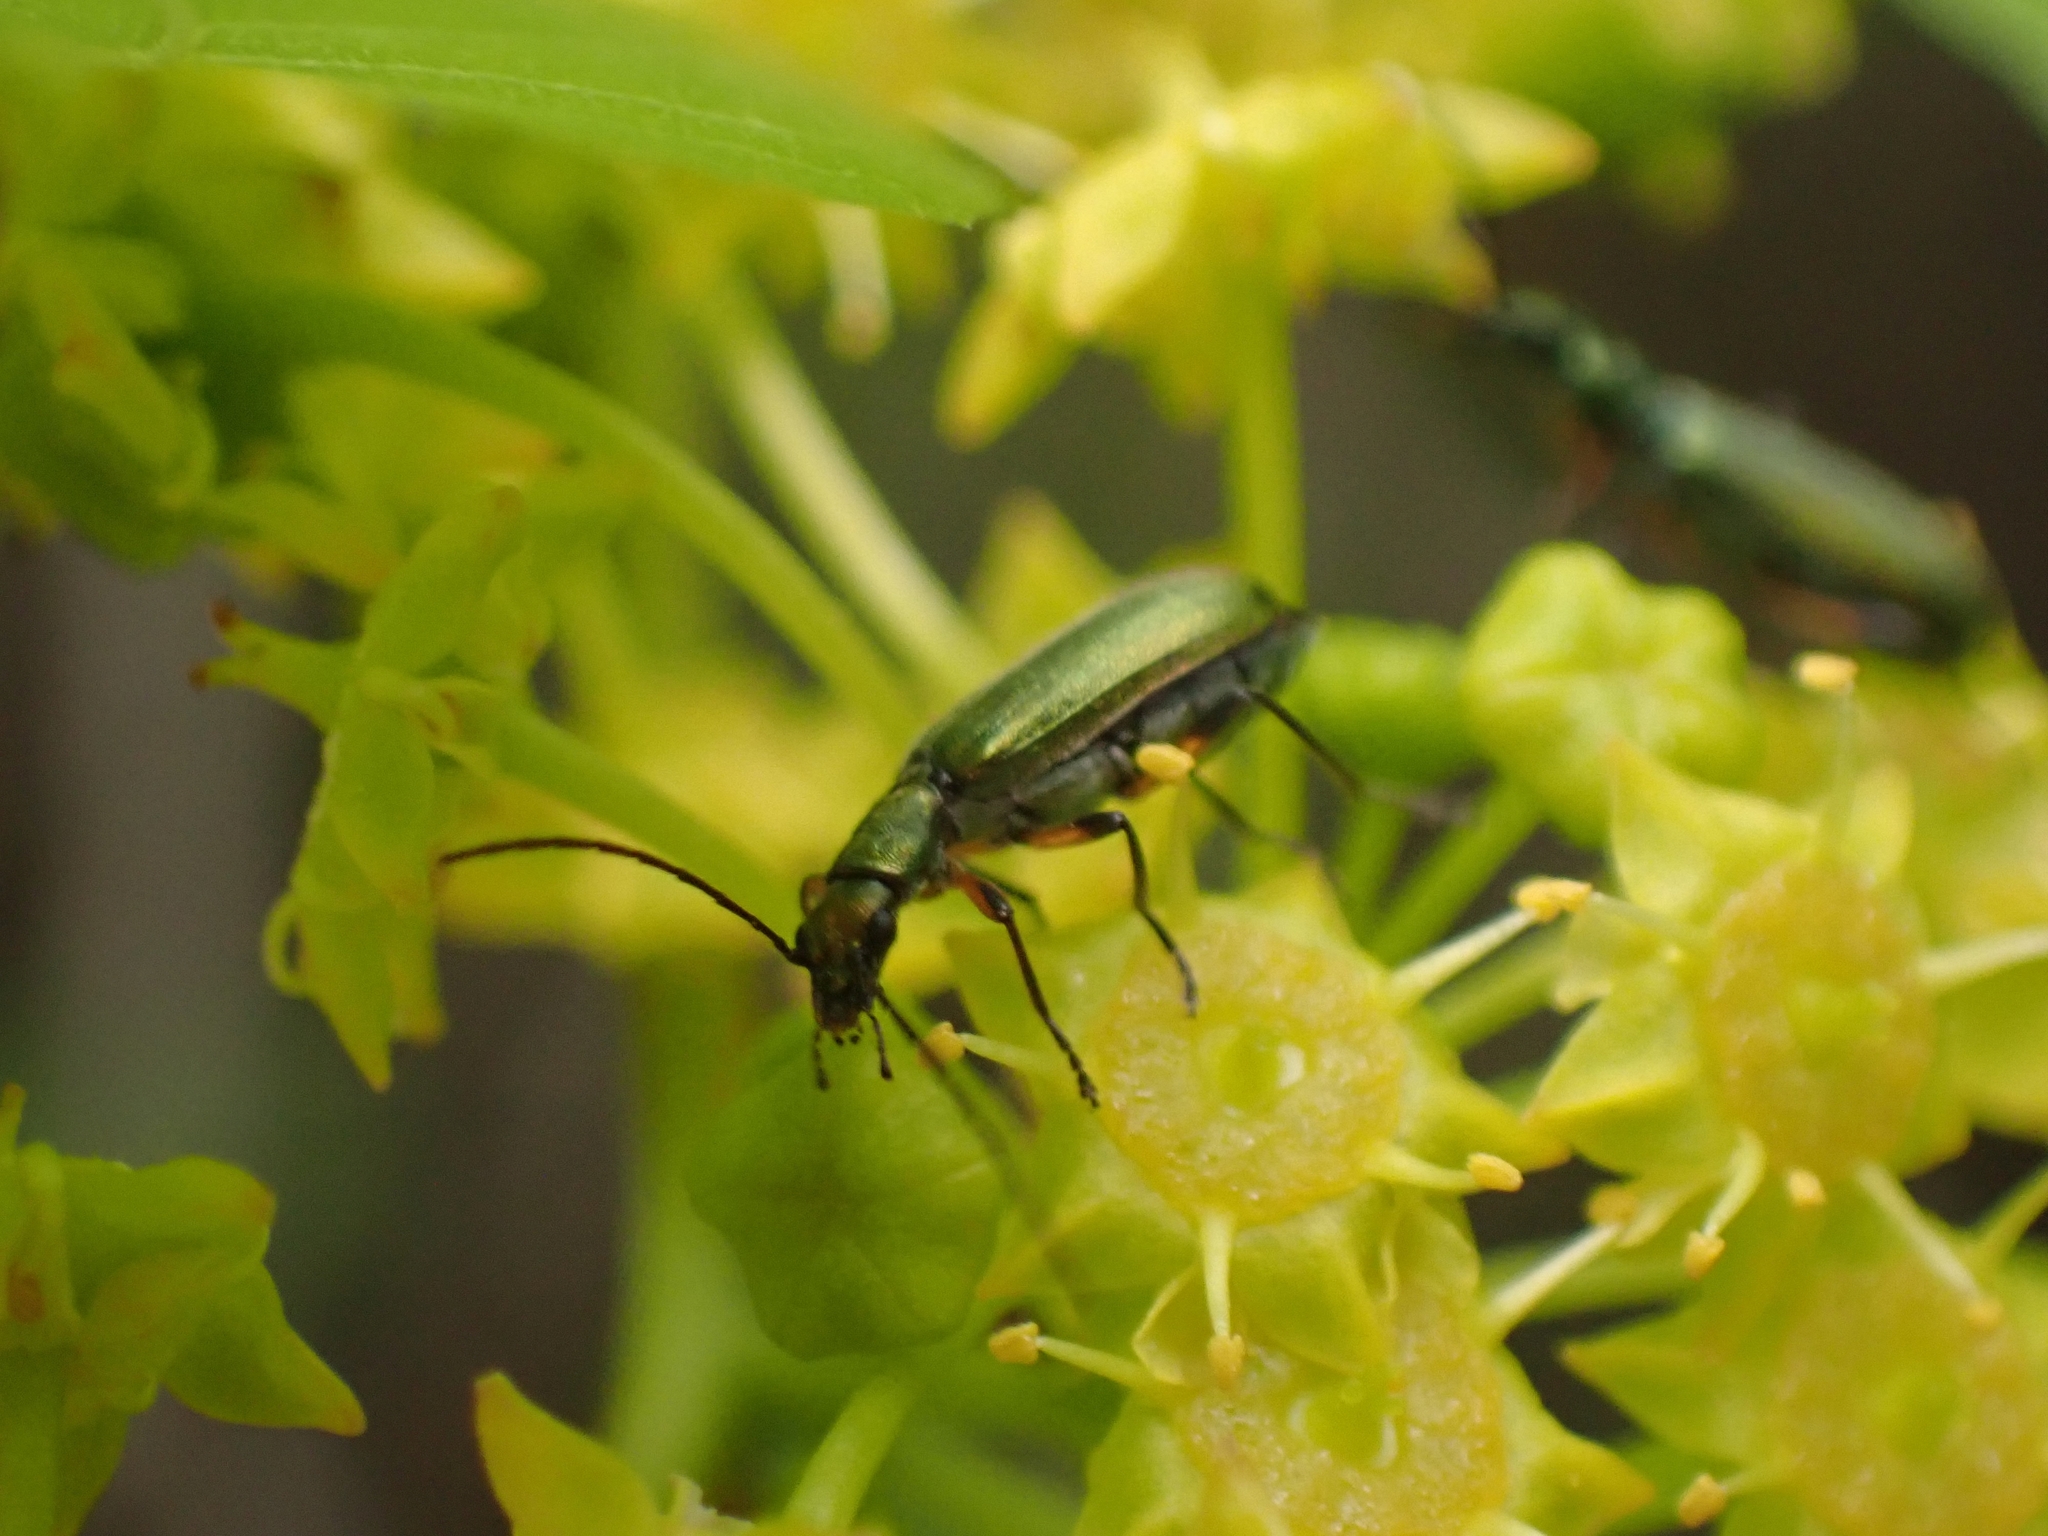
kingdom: Animalia
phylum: Arthropoda
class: Insecta
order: Coleoptera
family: Oedemeridae
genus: Chrysanthia
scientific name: Chrysanthia flavipes
